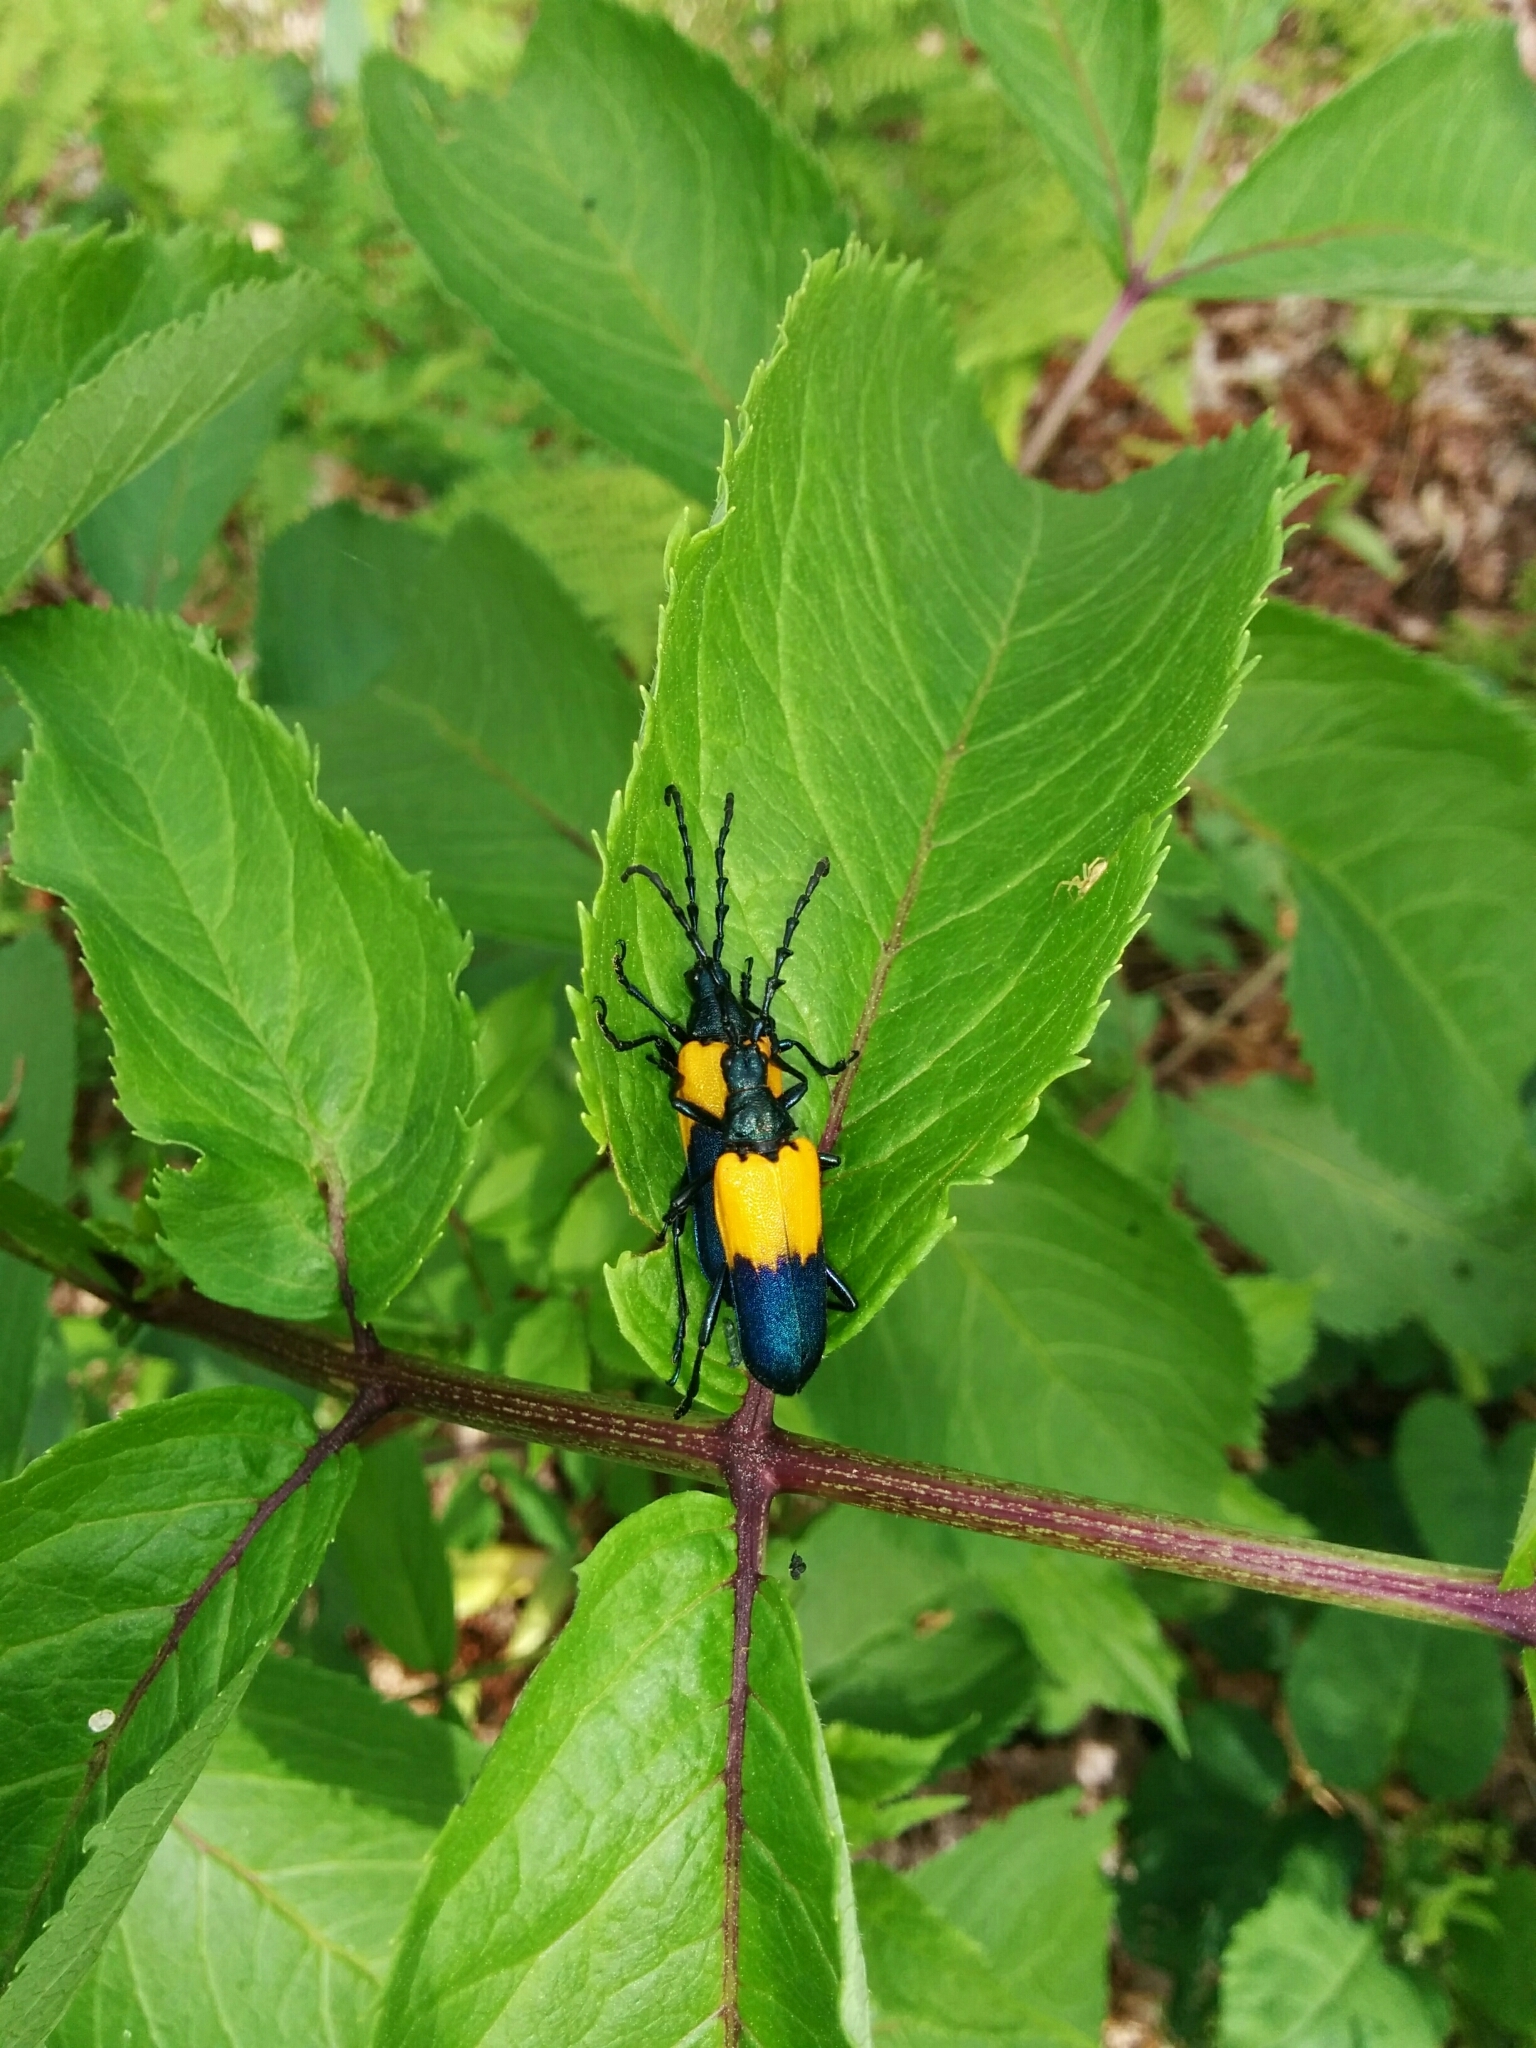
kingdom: Animalia
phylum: Arthropoda
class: Insecta
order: Coleoptera
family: Cerambycidae
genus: Desmocerus
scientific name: Desmocerus palliatus
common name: Eastern elderberry borer
